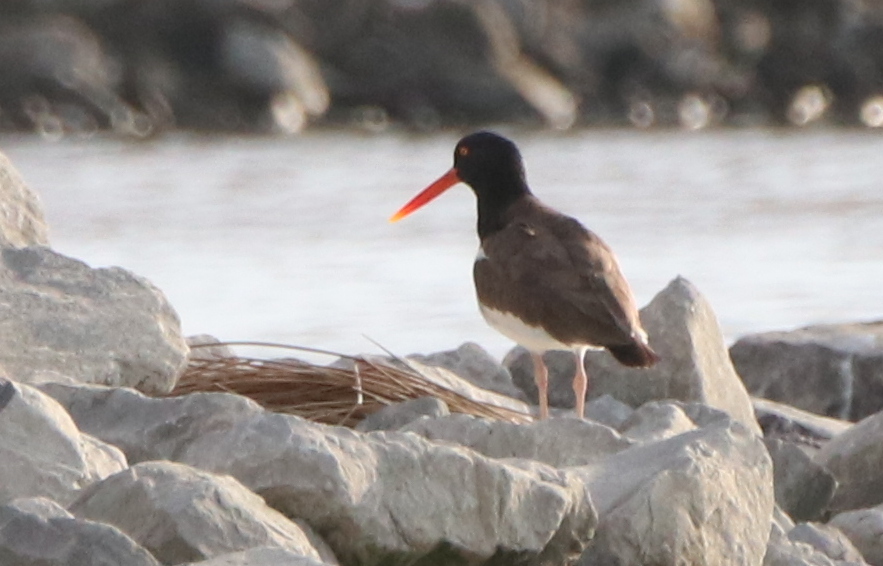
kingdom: Animalia
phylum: Chordata
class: Aves
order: Charadriiformes
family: Haematopodidae
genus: Haematopus
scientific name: Haematopus palliatus
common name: American oystercatcher
